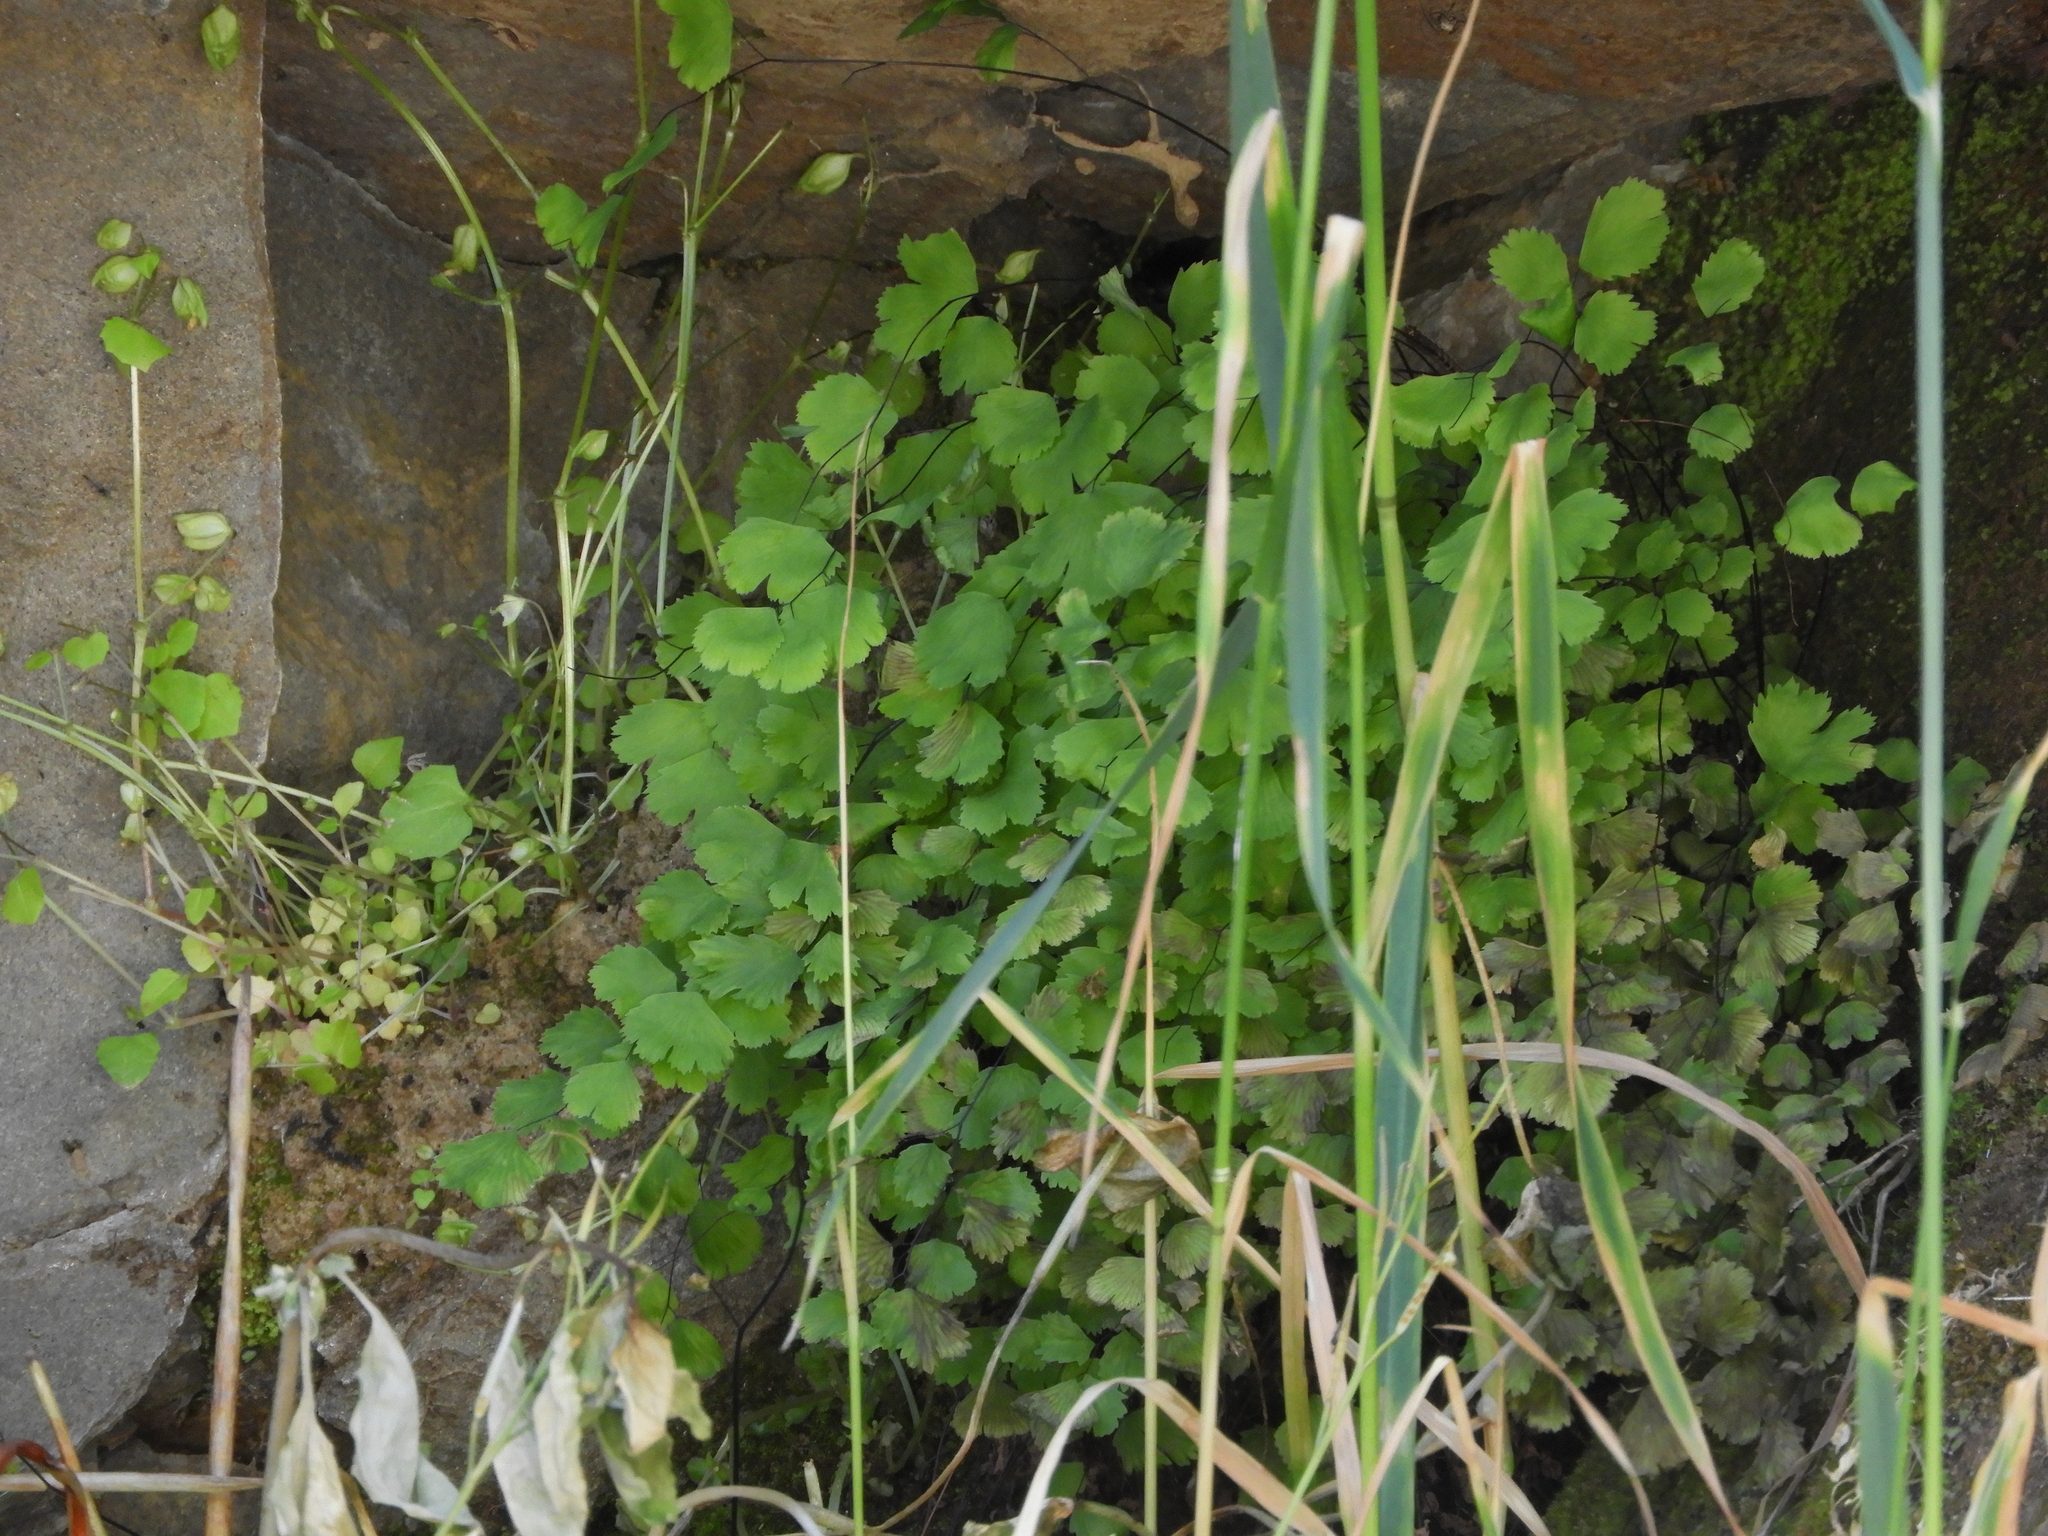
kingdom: Plantae
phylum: Tracheophyta
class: Polypodiopsida
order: Polypodiales
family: Pteridaceae
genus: Adiantum
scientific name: Adiantum capillus-veneris
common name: Maidenhair fern
